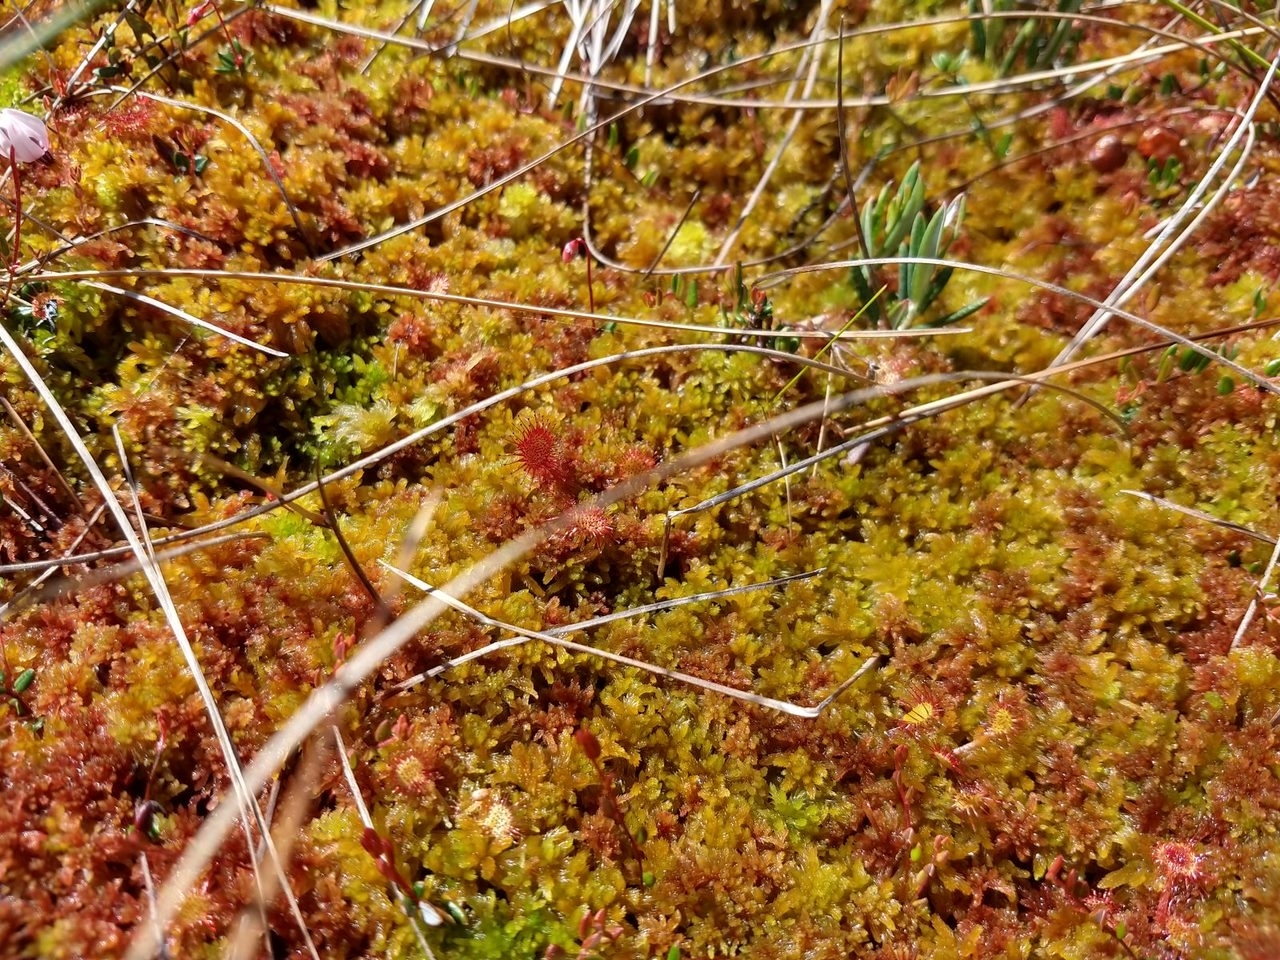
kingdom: Plantae
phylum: Tracheophyta
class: Magnoliopsida
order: Caryophyllales
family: Droseraceae
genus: Drosera
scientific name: Drosera rotundifolia
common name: Round-leaved sundew
